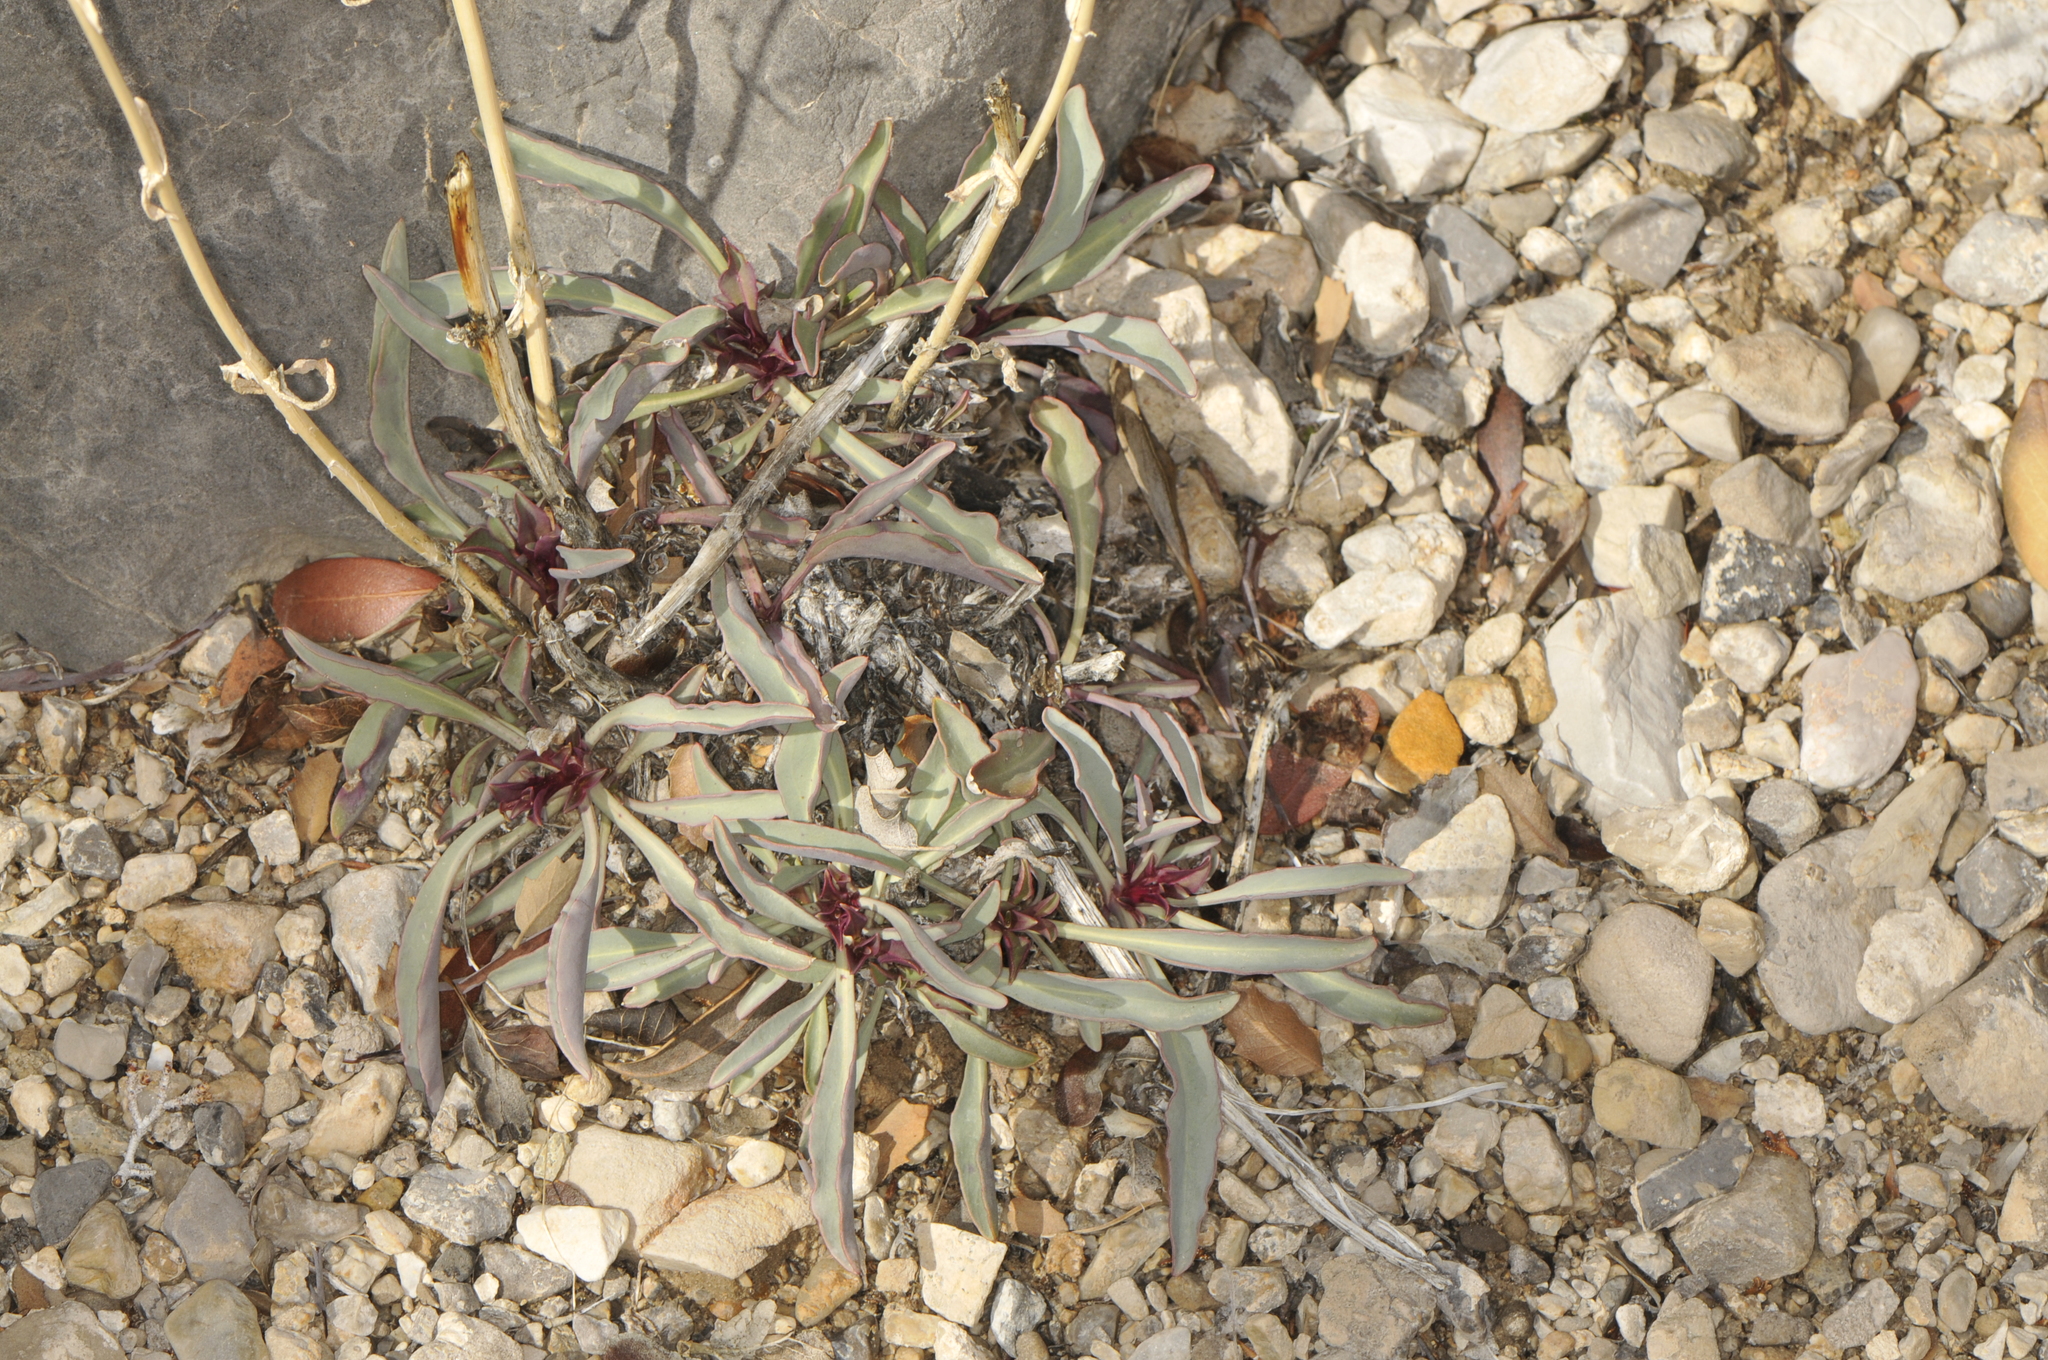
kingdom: Plantae
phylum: Tracheophyta
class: Magnoliopsida
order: Lamiales
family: Plantaginaceae
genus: Penstemon
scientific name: Penstemon utahensis
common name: Utah penstemon
